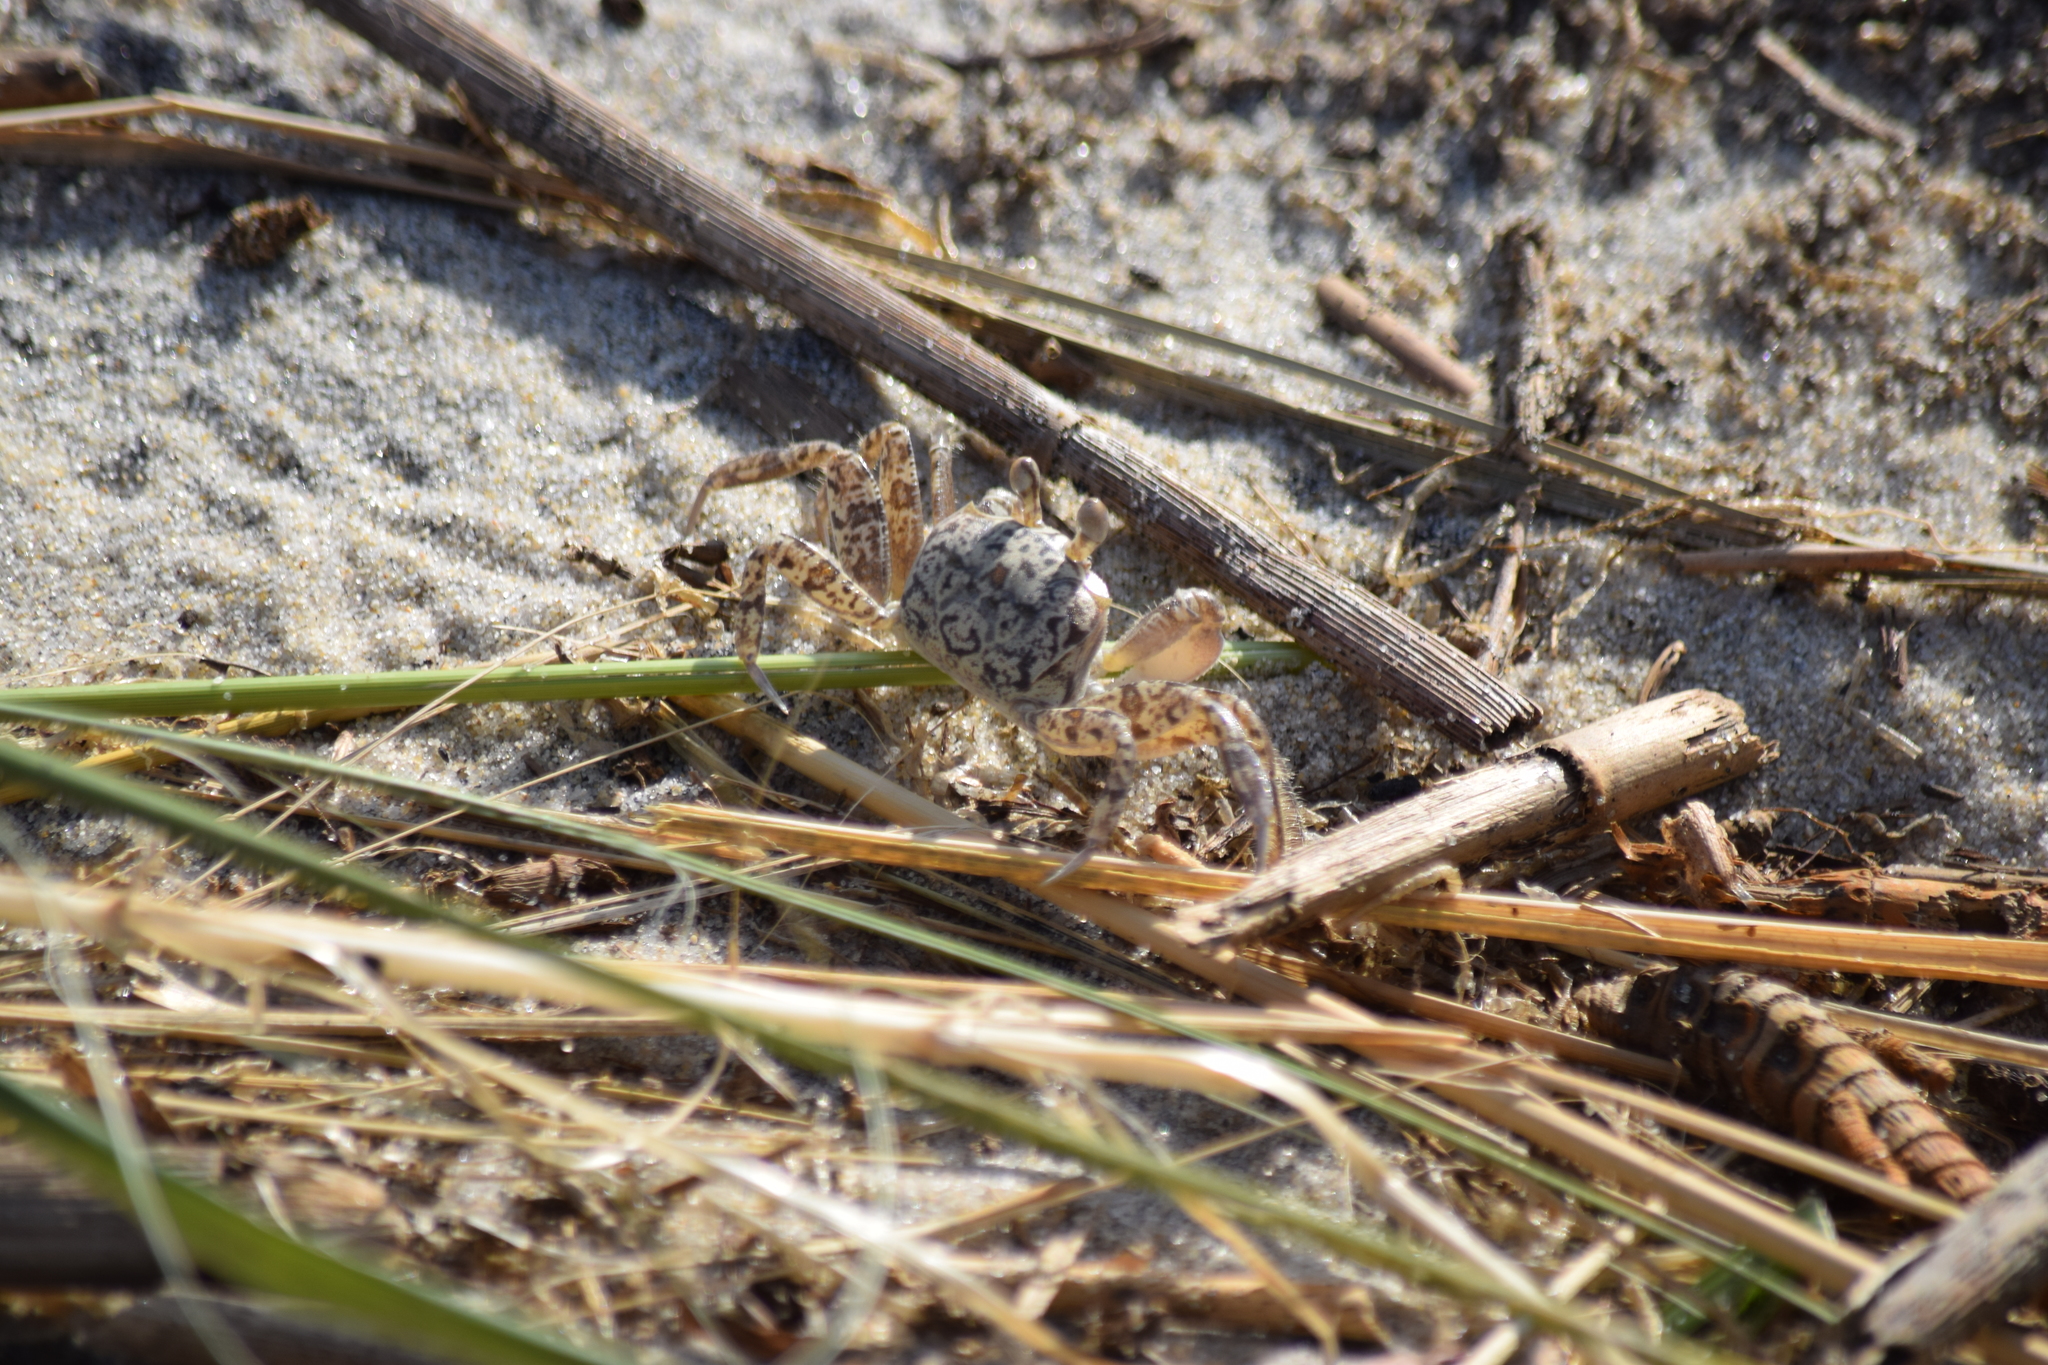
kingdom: Animalia
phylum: Arthropoda
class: Malacostraca
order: Decapoda
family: Ocypodidae
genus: Ocypode
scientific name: Ocypode quadrata
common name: Ghost crab
